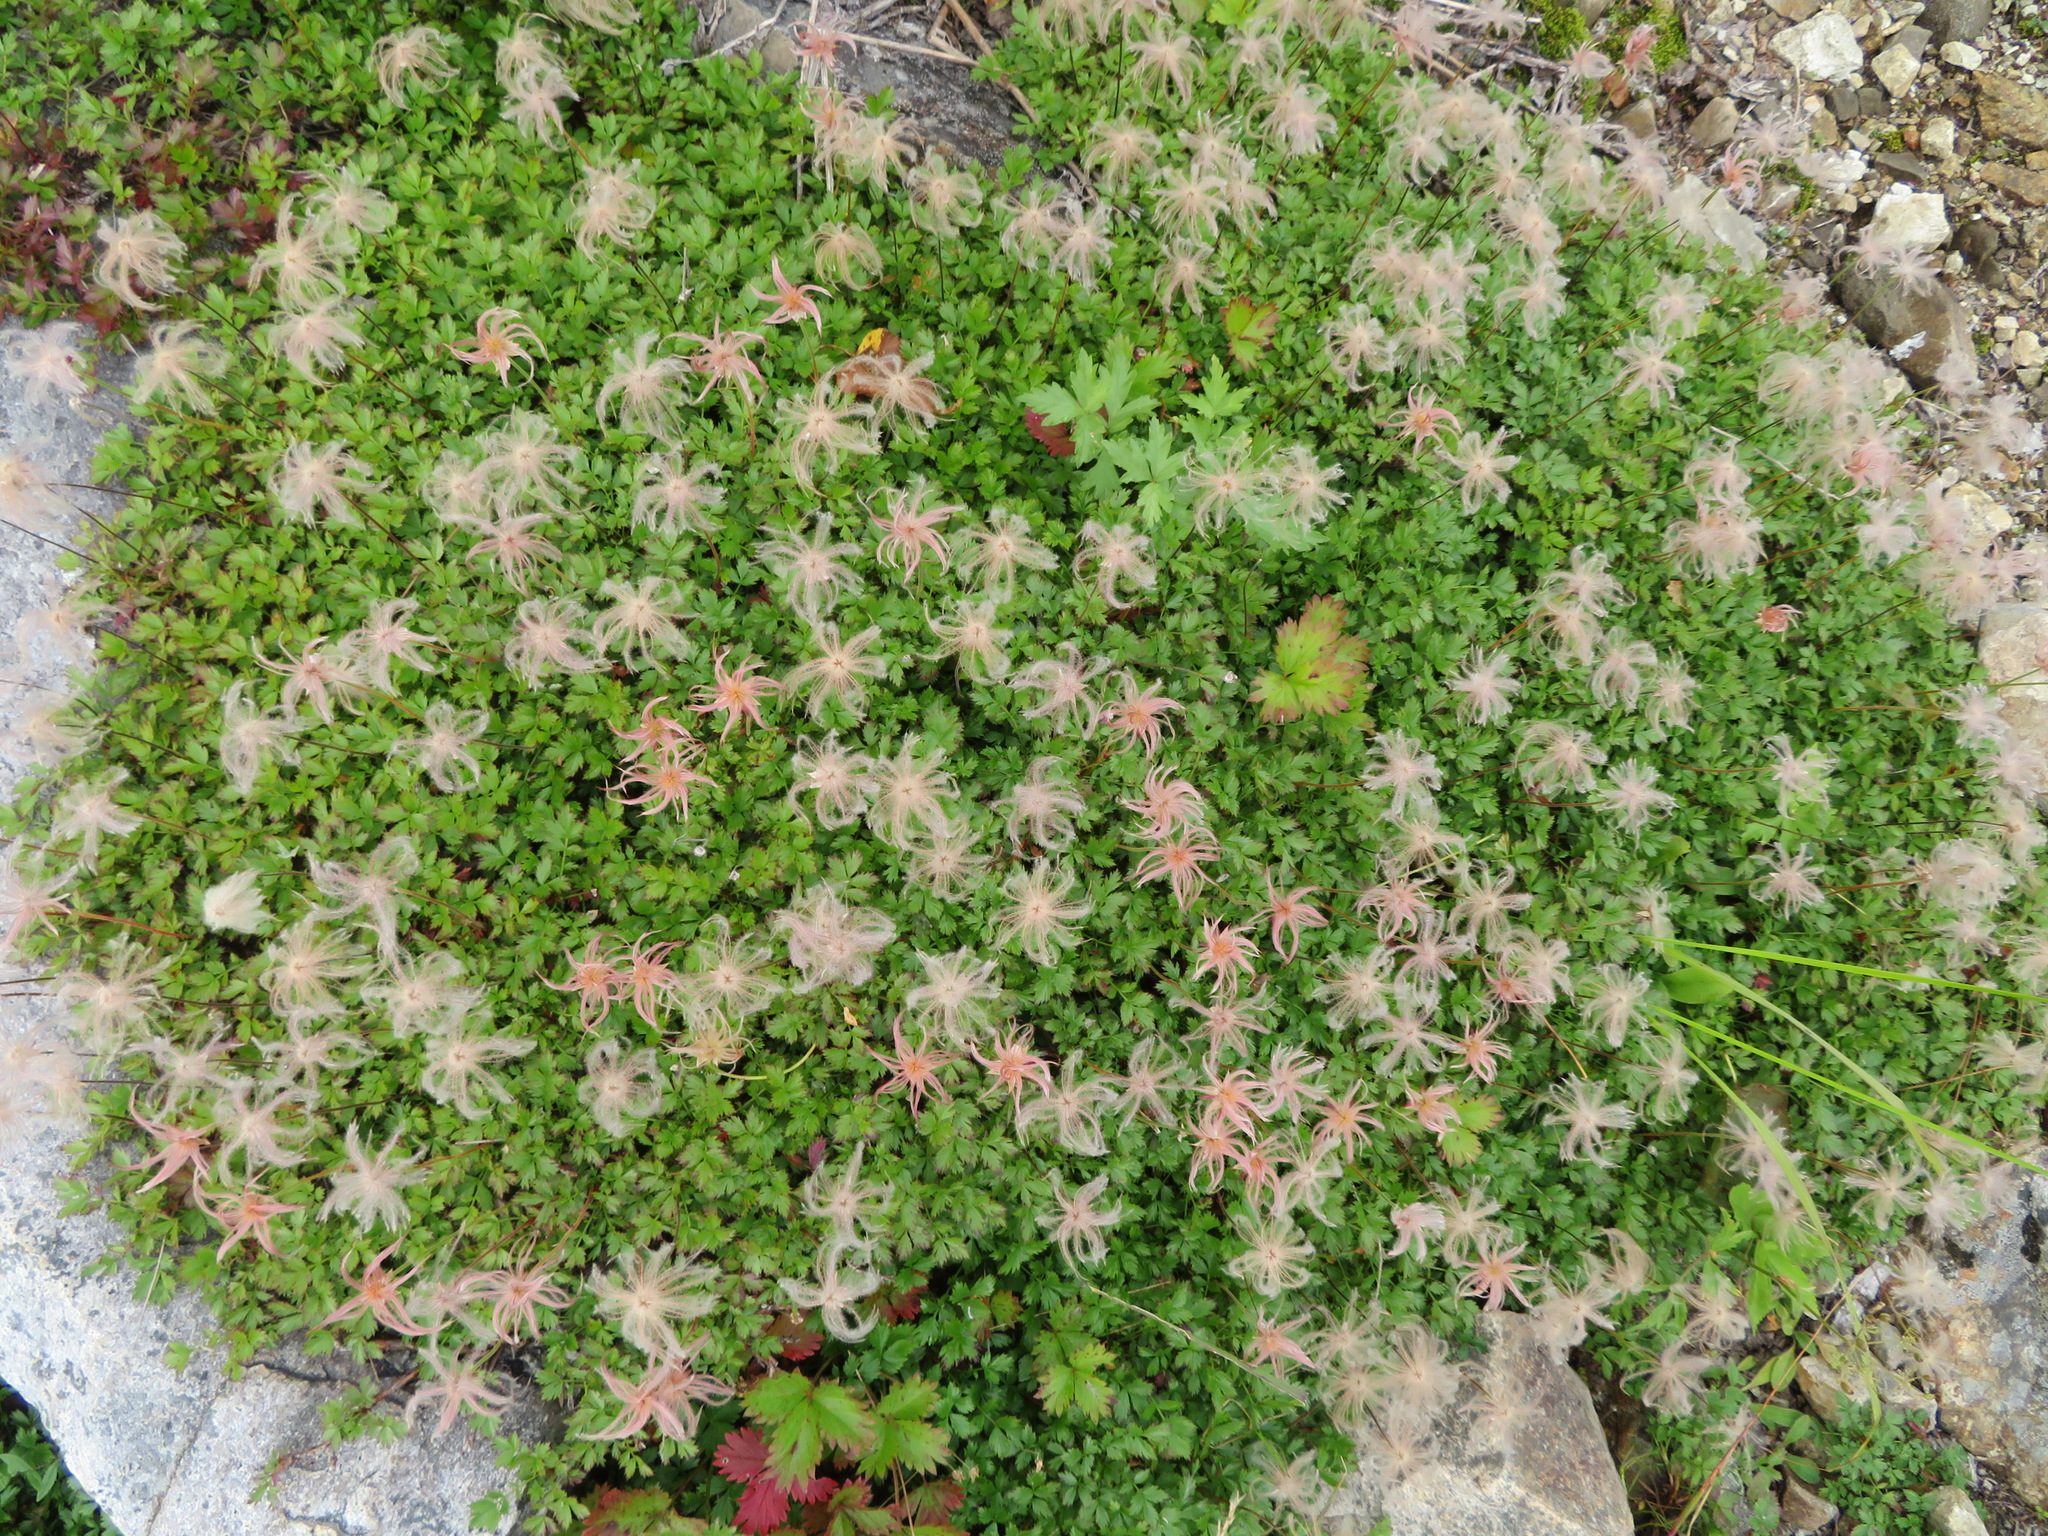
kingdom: Plantae
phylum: Tracheophyta
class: Magnoliopsida
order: Rosales
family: Rosaceae
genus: Geum
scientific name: Geum pentapetalum
